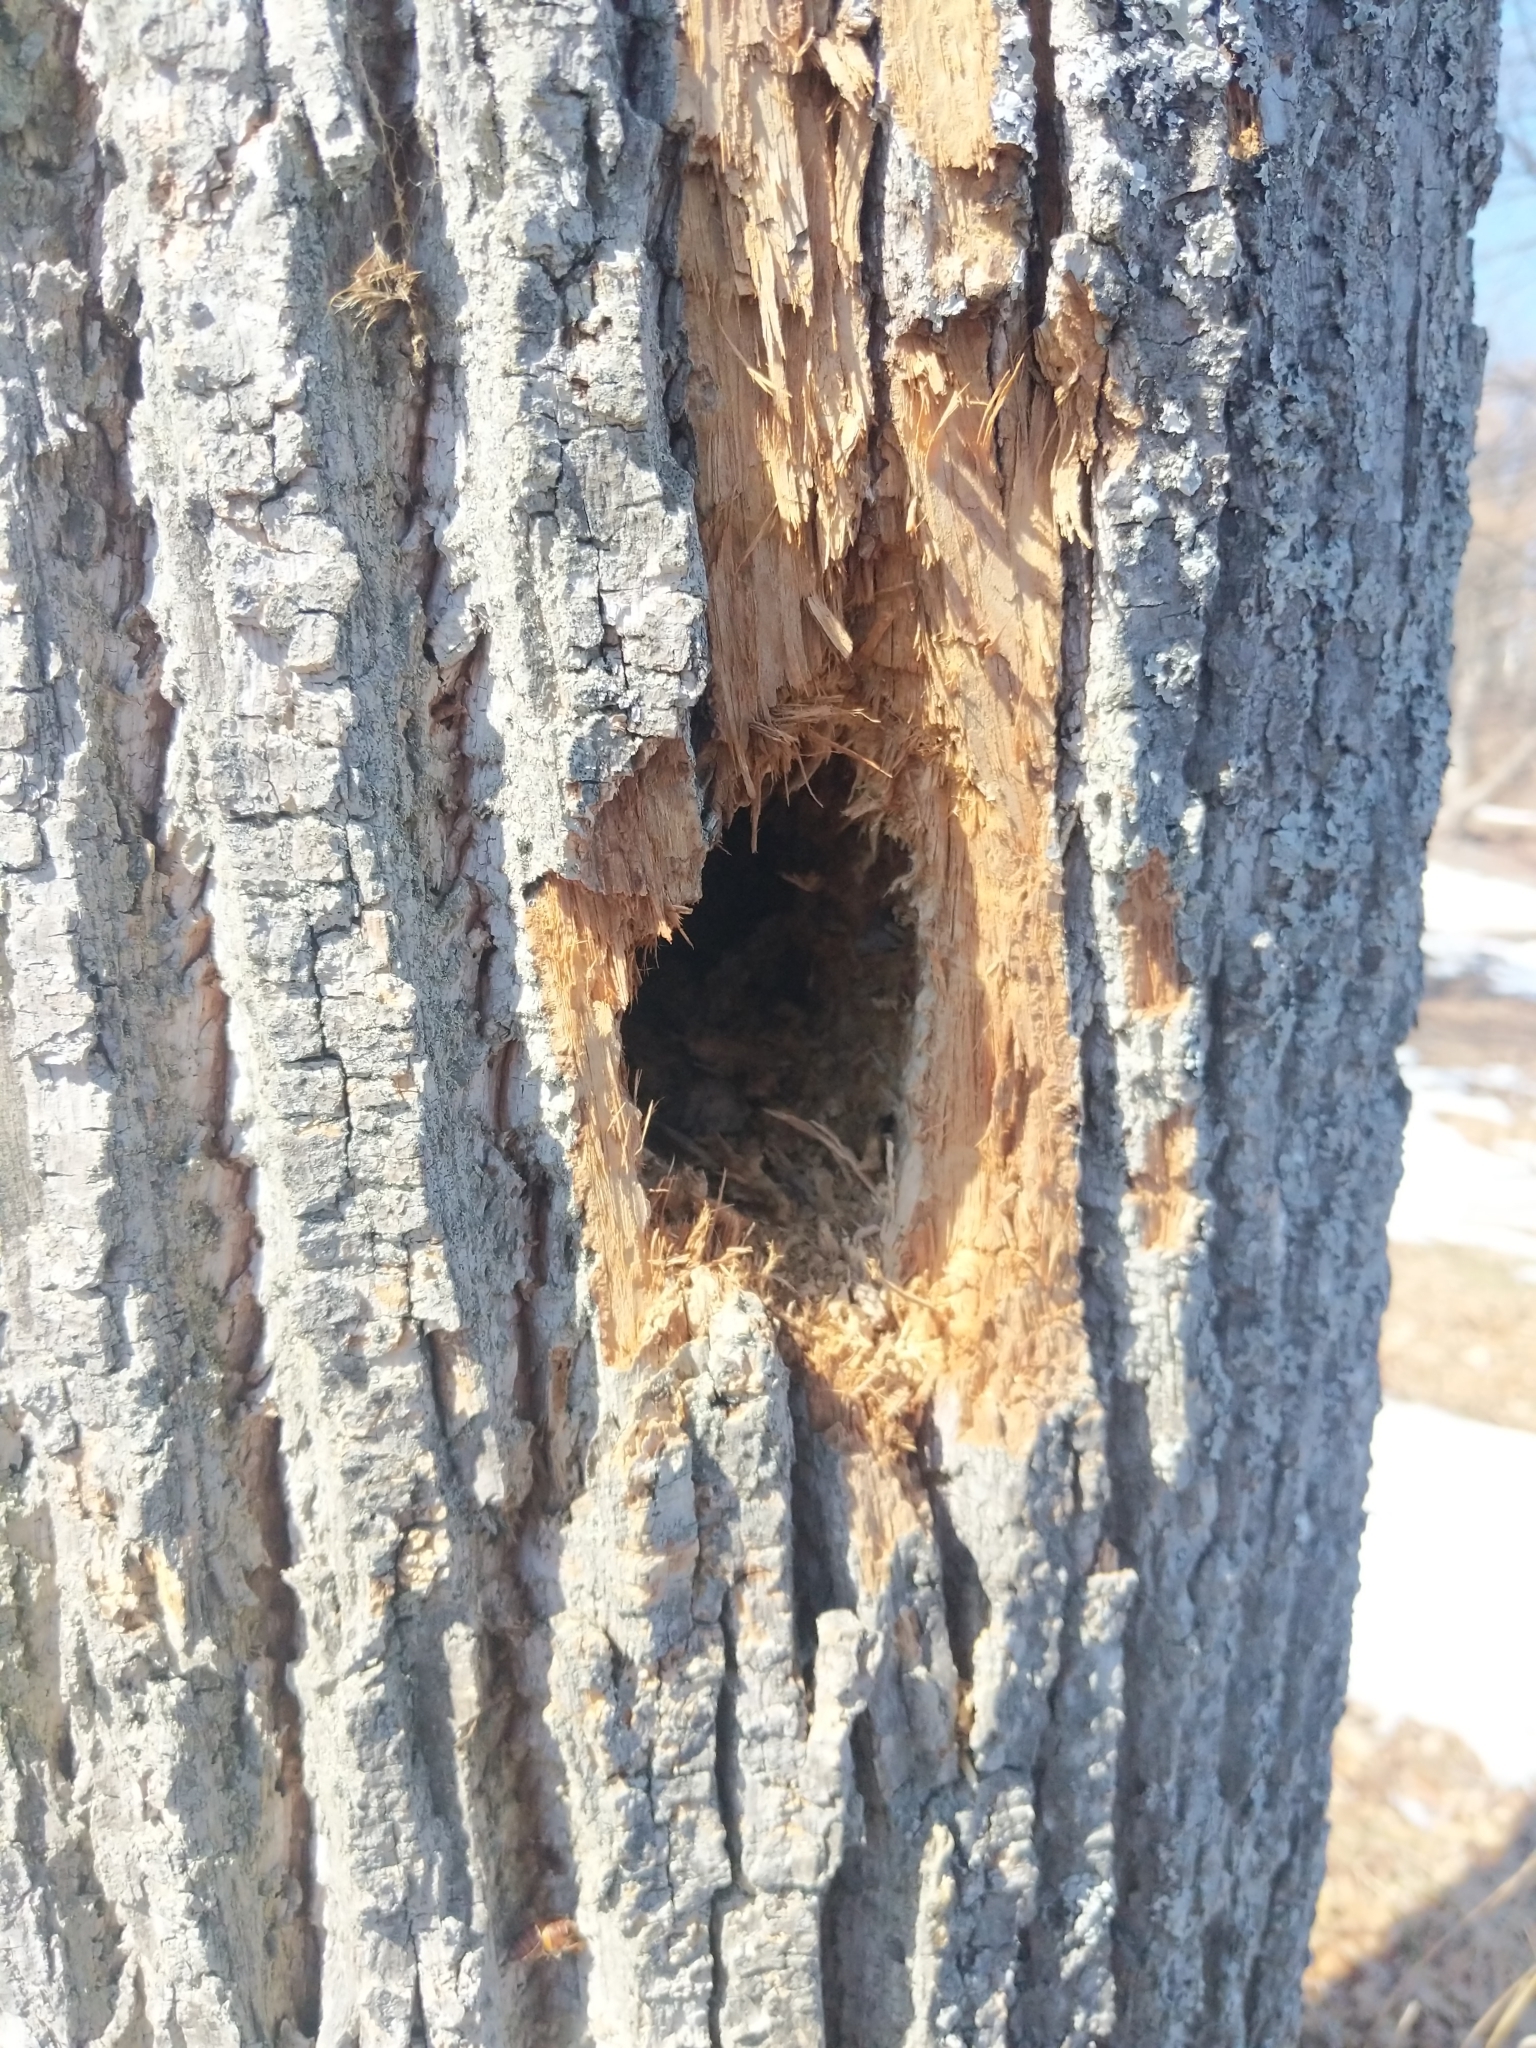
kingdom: Animalia
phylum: Chordata
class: Aves
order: Piciformes
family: Picidae
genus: Dryocopus
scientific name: Dryocopus pileatus
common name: Pileated woodpecker
